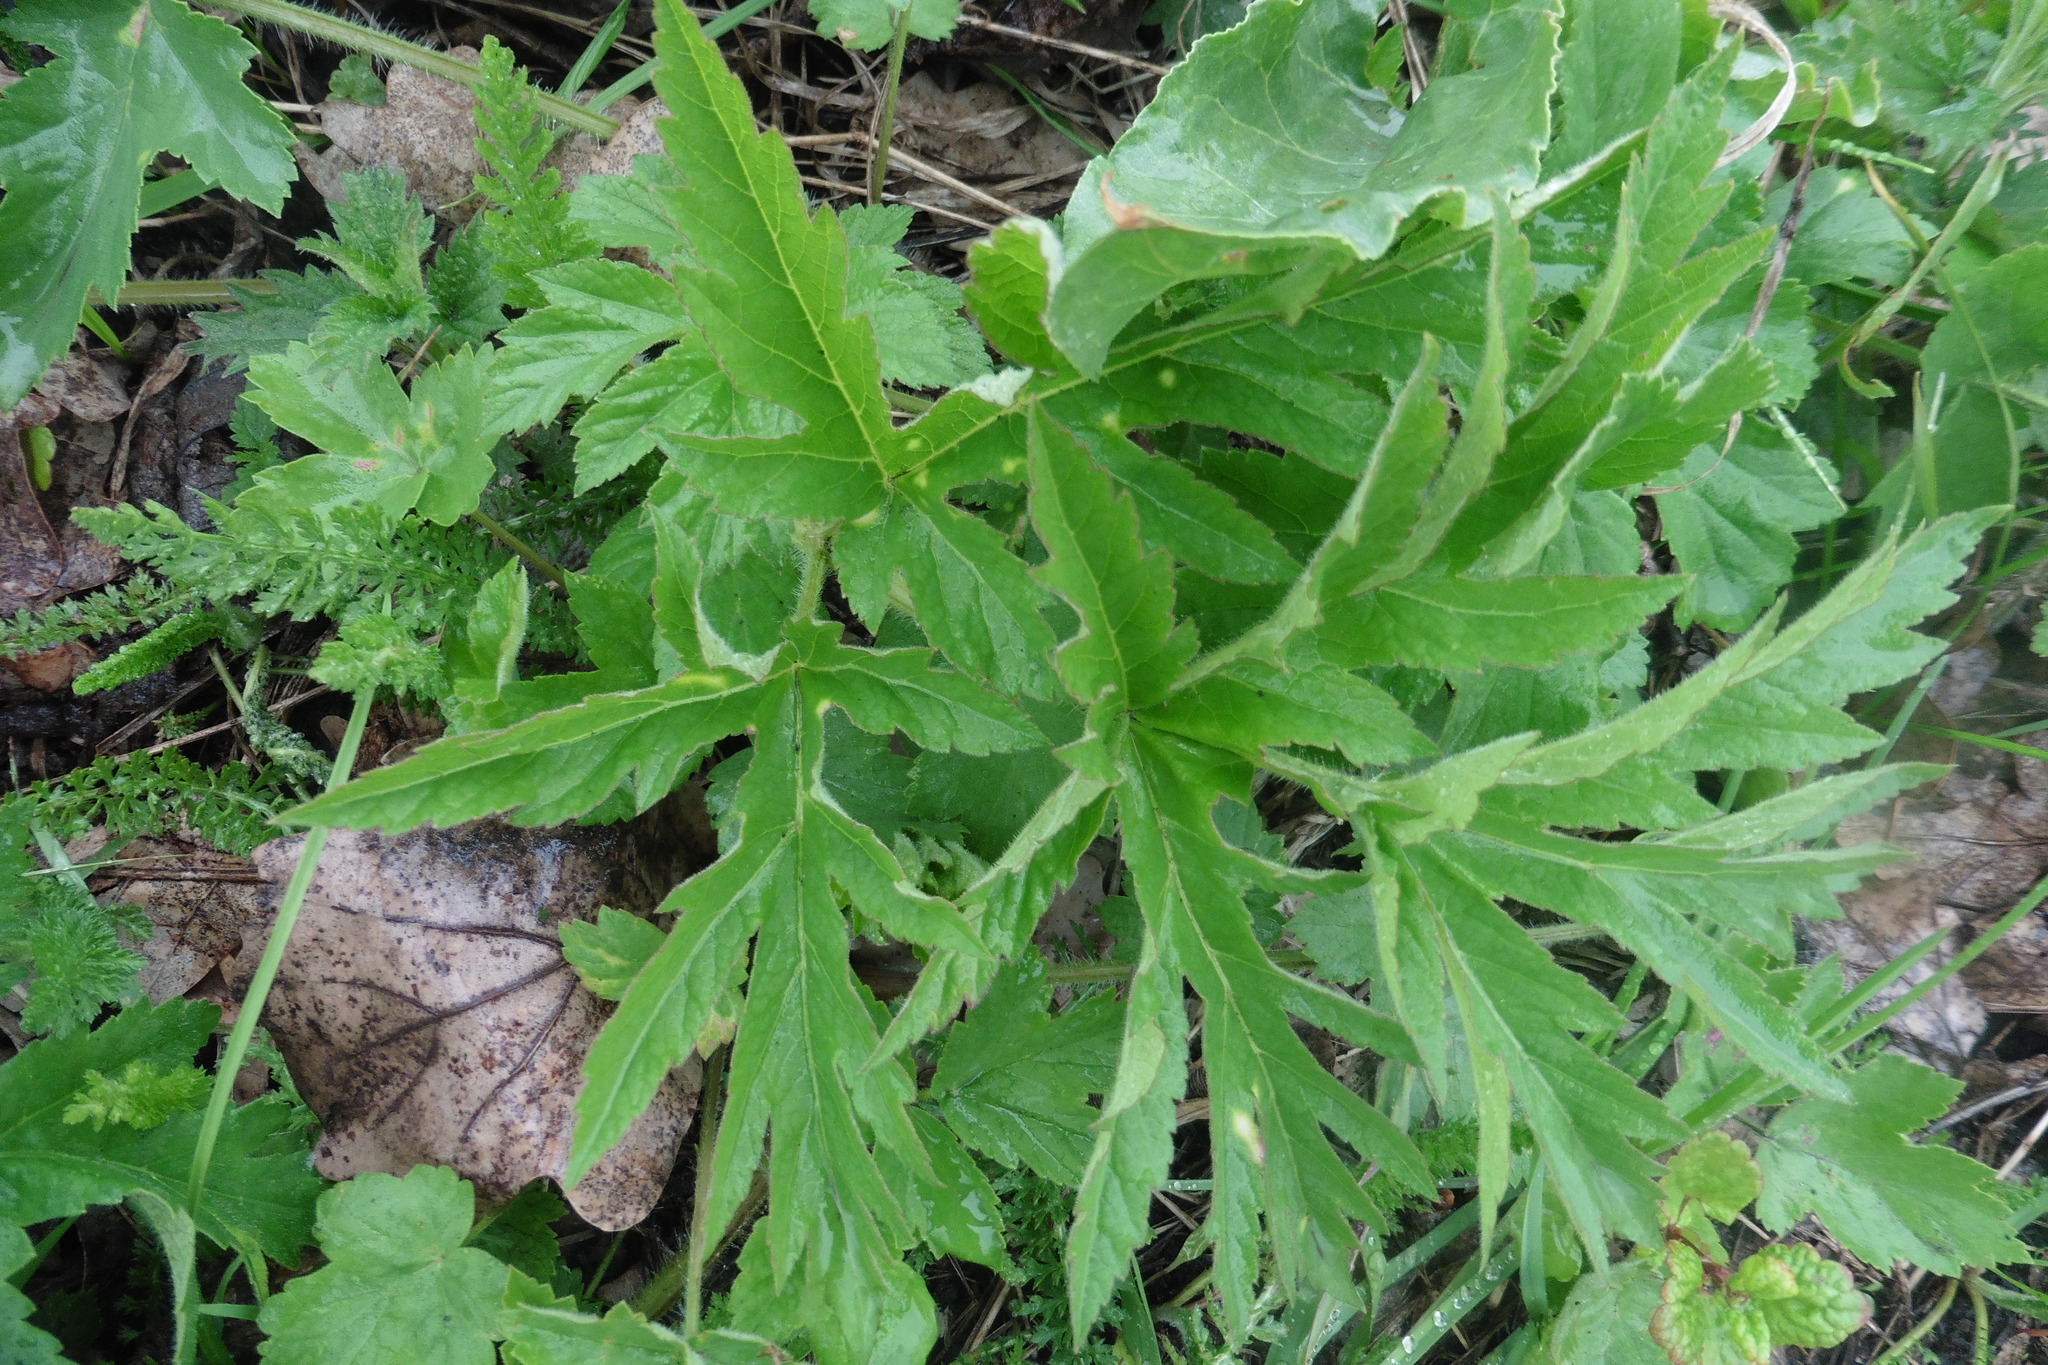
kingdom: Plantae
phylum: Tracheophyta
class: Magnoliopsida
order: Apiales
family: Apiaceae
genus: Heracleum
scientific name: Heracleum sphondylium
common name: Hogweed
